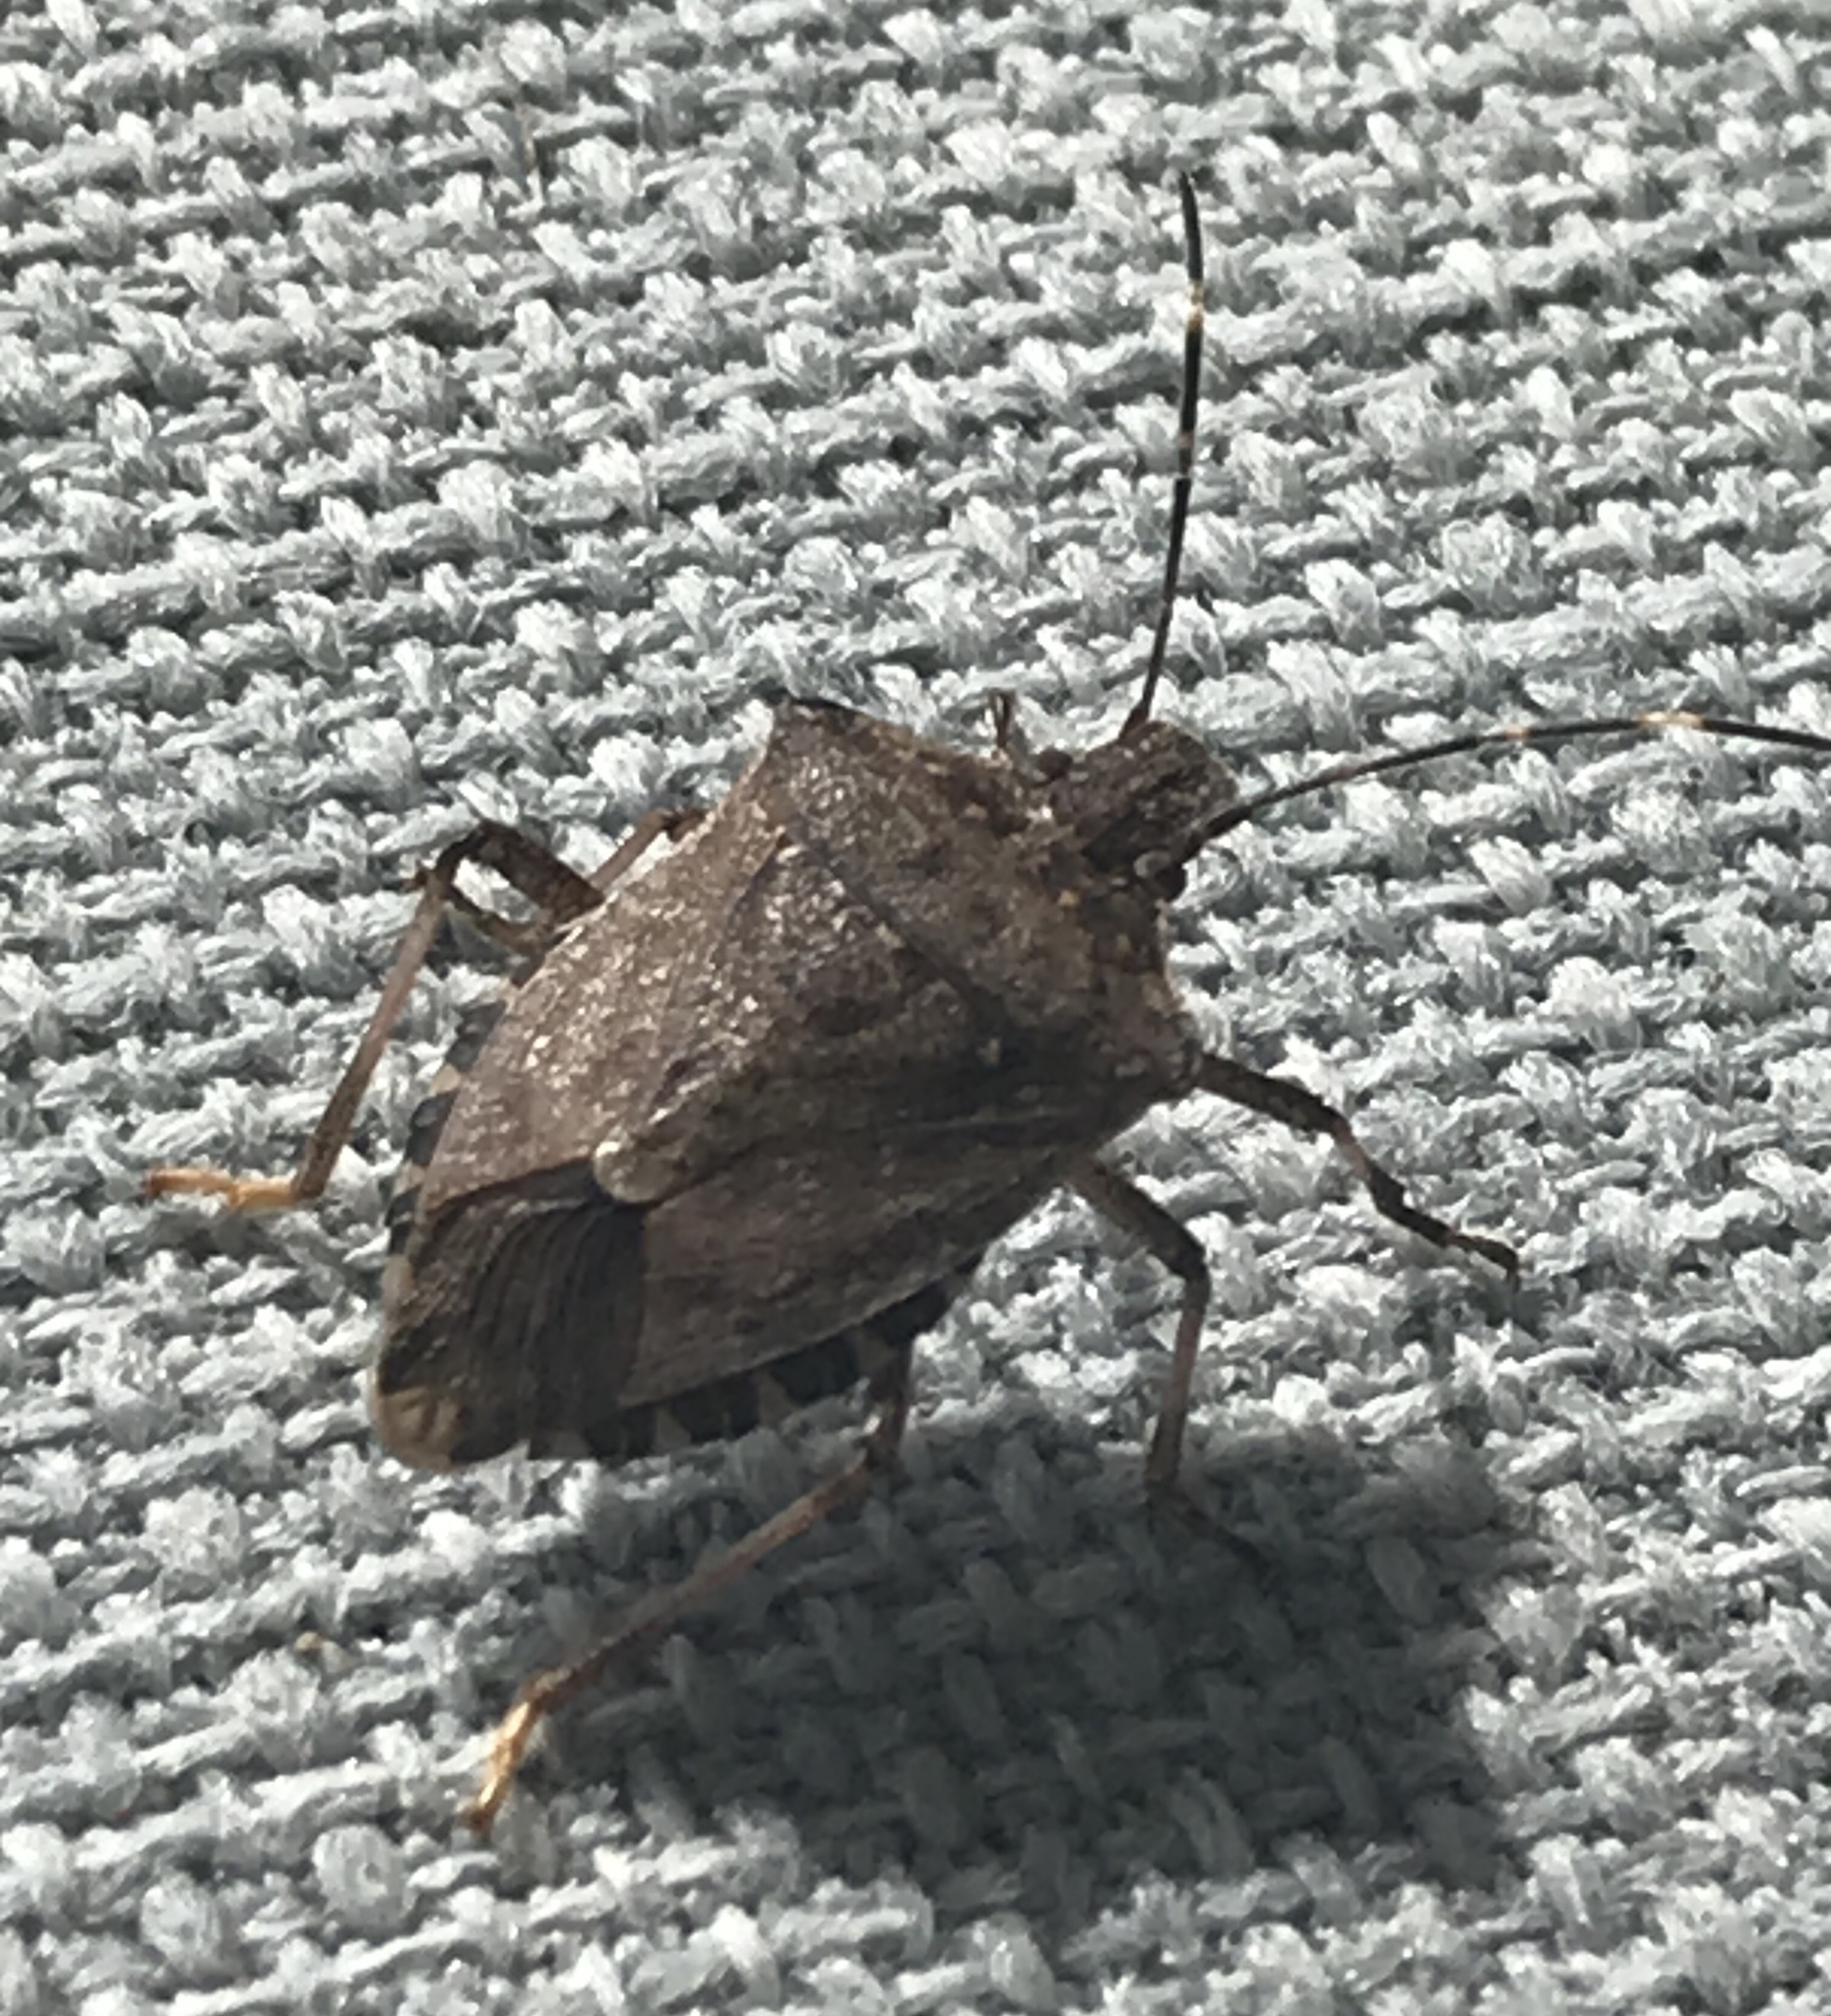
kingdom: Animalia
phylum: Arthropoda
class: Insecta
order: Hemiptera
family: Pentatomidae
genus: Halyomorpha
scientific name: Halyomorpha halys
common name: Brown marmorated stink bug
